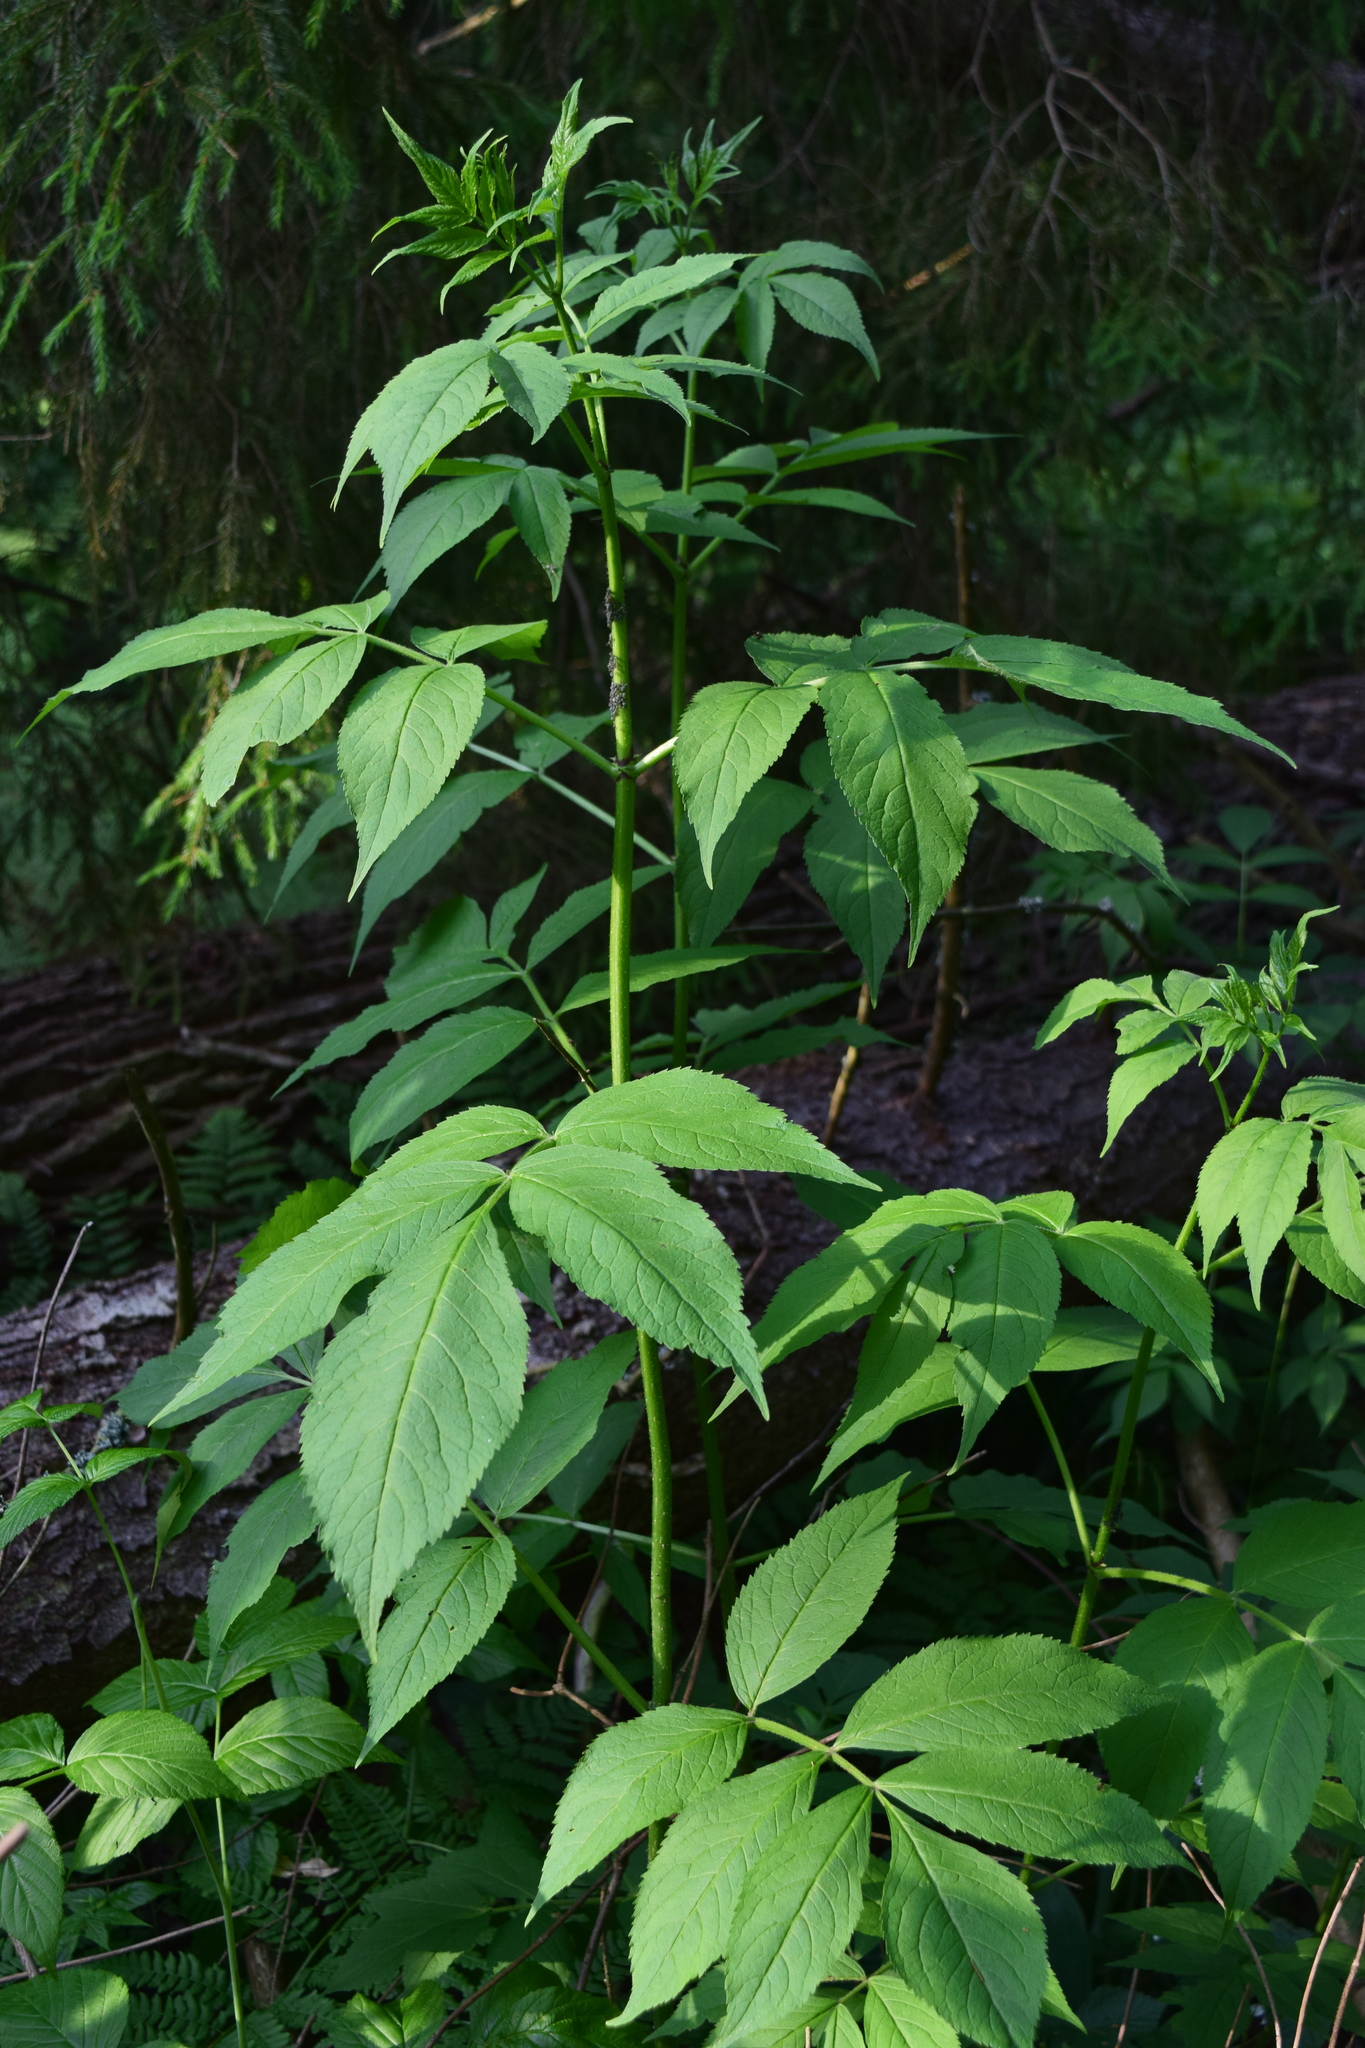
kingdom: Plantae
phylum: Tracheophyta
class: Magnoliopsida
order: Dipsacales
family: Viburnaceae
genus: Sambucus
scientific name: Sambucus racemosa
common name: Red-berried elder
